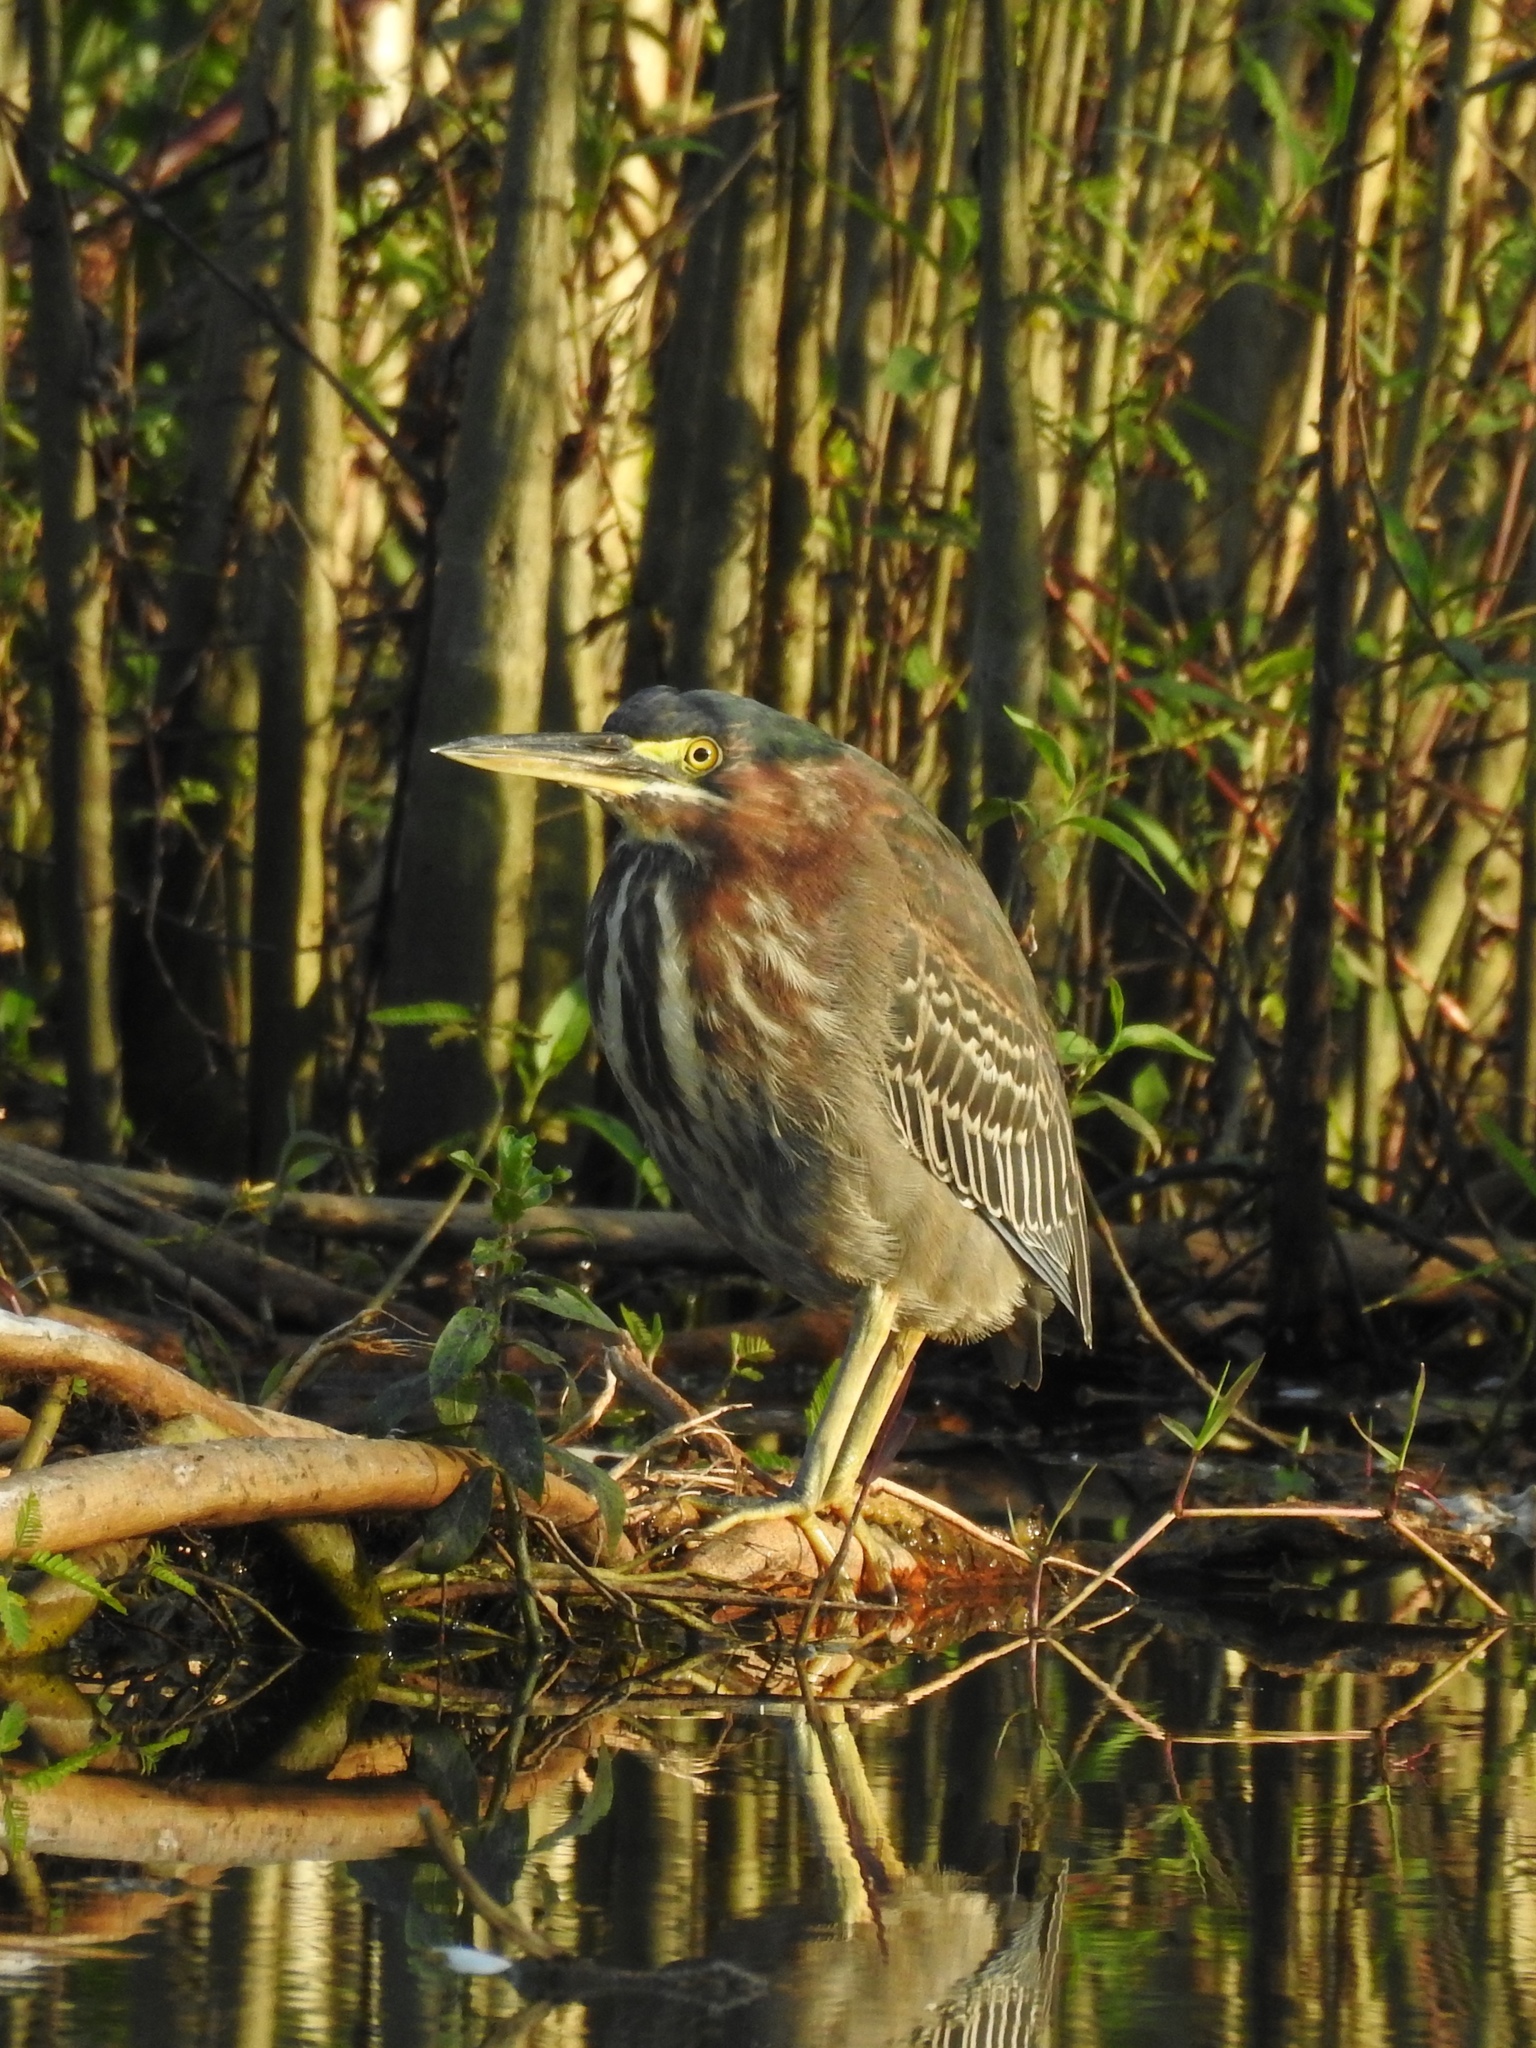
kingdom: Animalia
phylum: Chordata
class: Aves
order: Pelecaniformes
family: Ardeidae
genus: Butorides
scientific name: Butorides virescens
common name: Green heron
